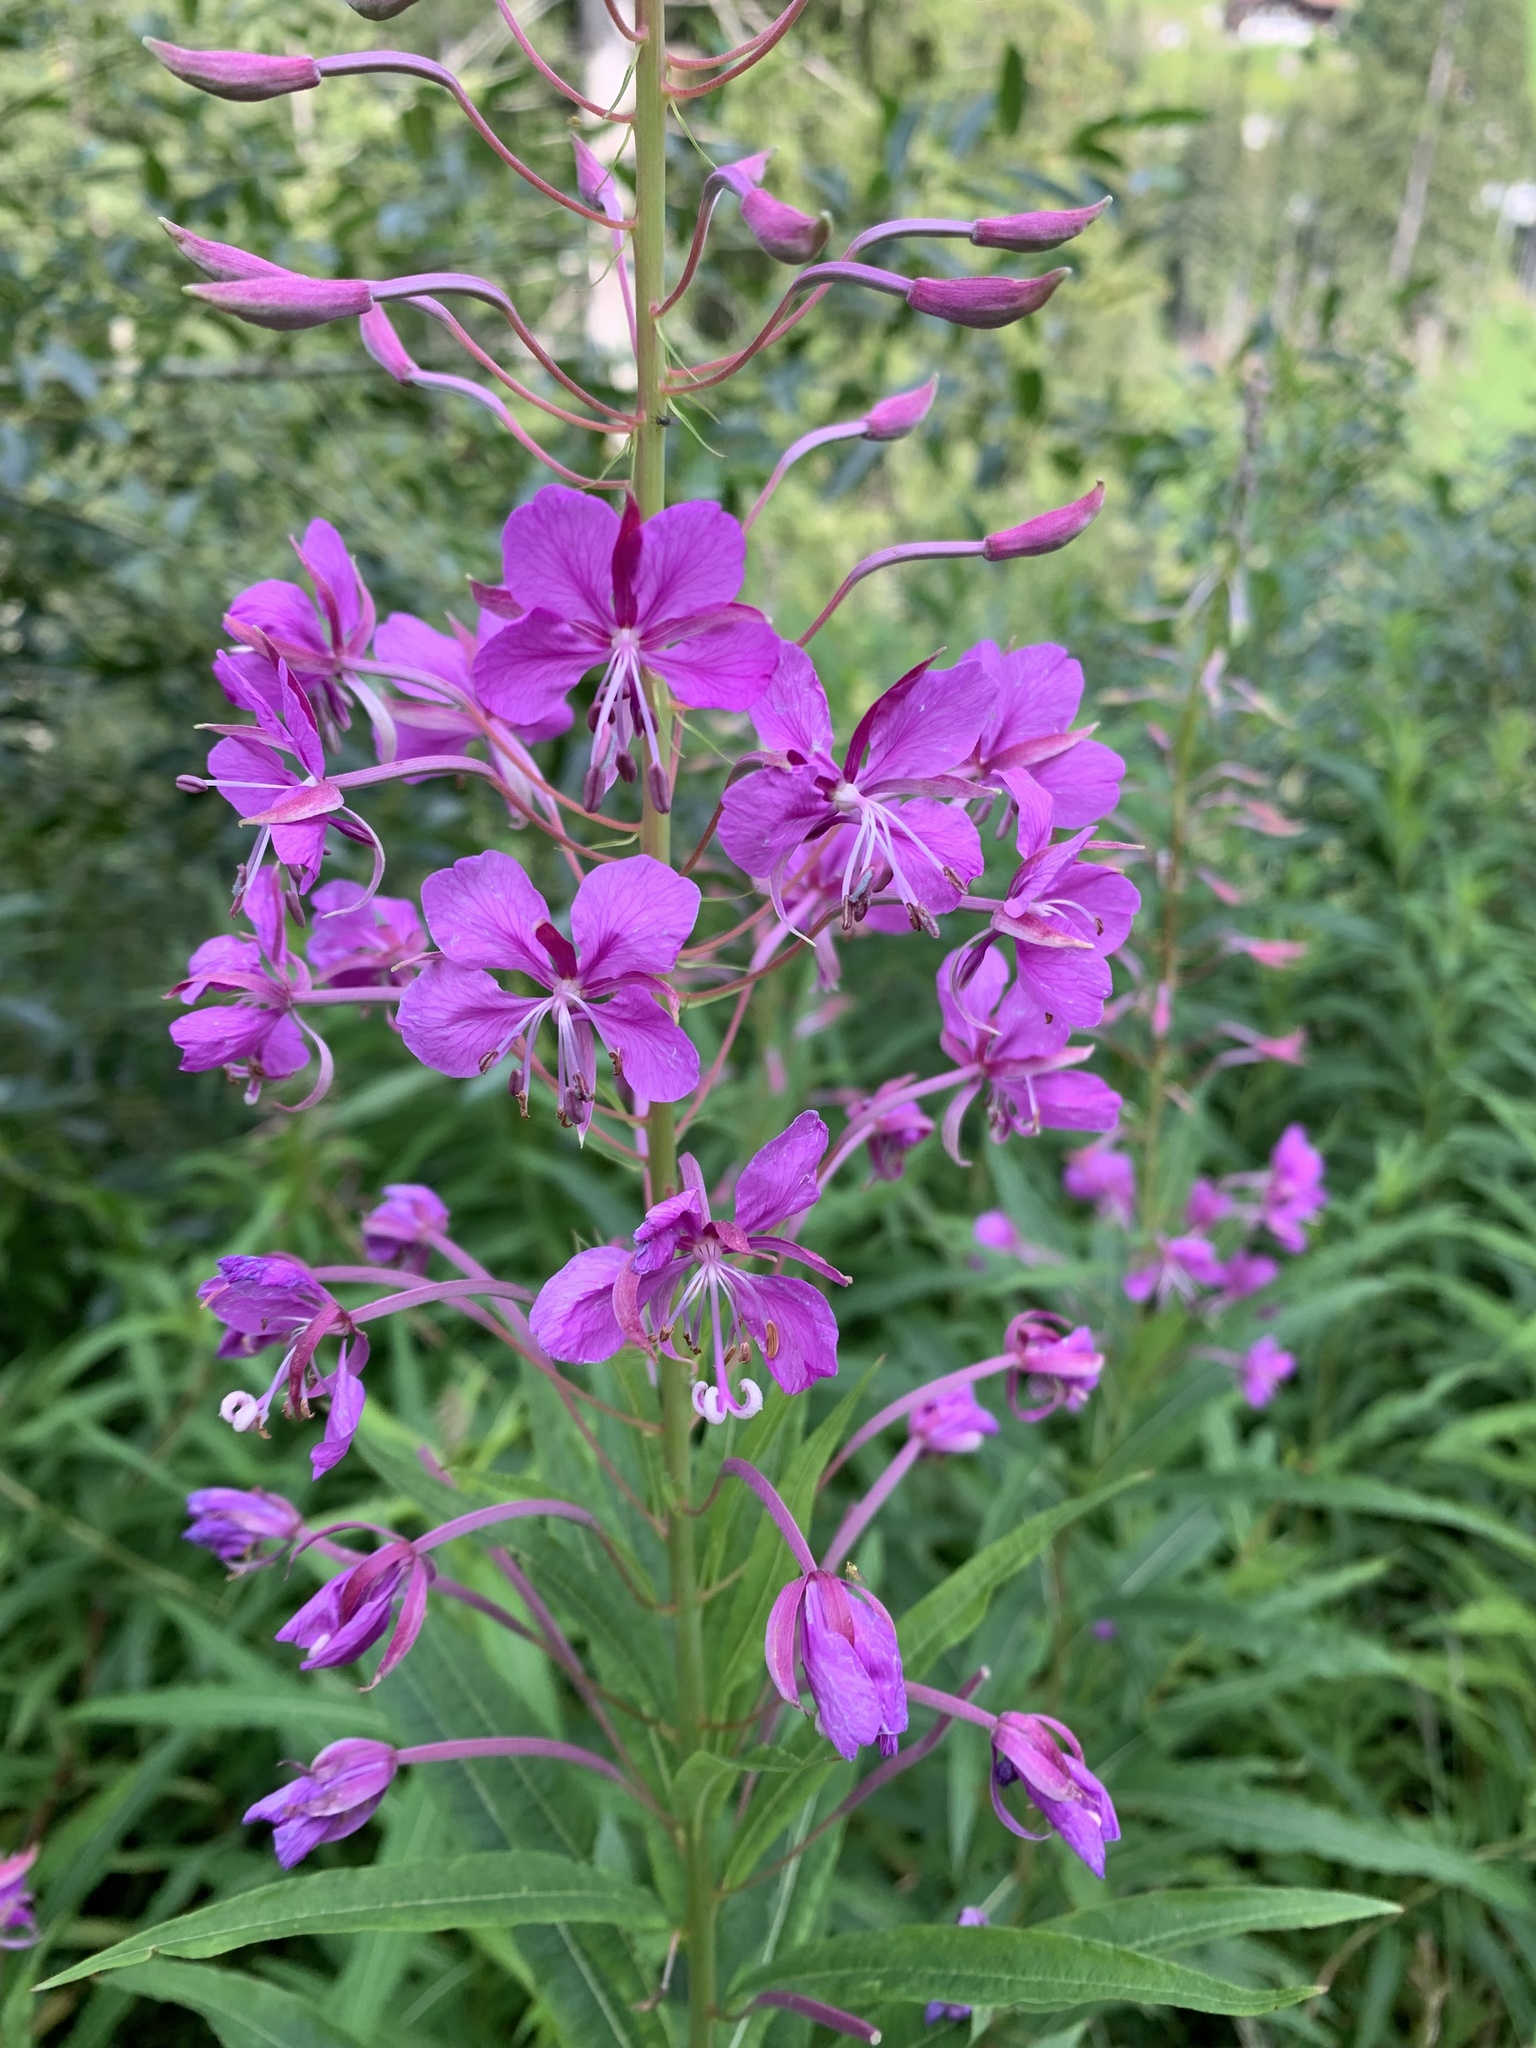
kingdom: Plantae
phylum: Tracheophyta
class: Magnoliopsida
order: Myrtales
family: Onagraceae
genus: Chamaenerion
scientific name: Chamaenerion angustifolium
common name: Fireweed
